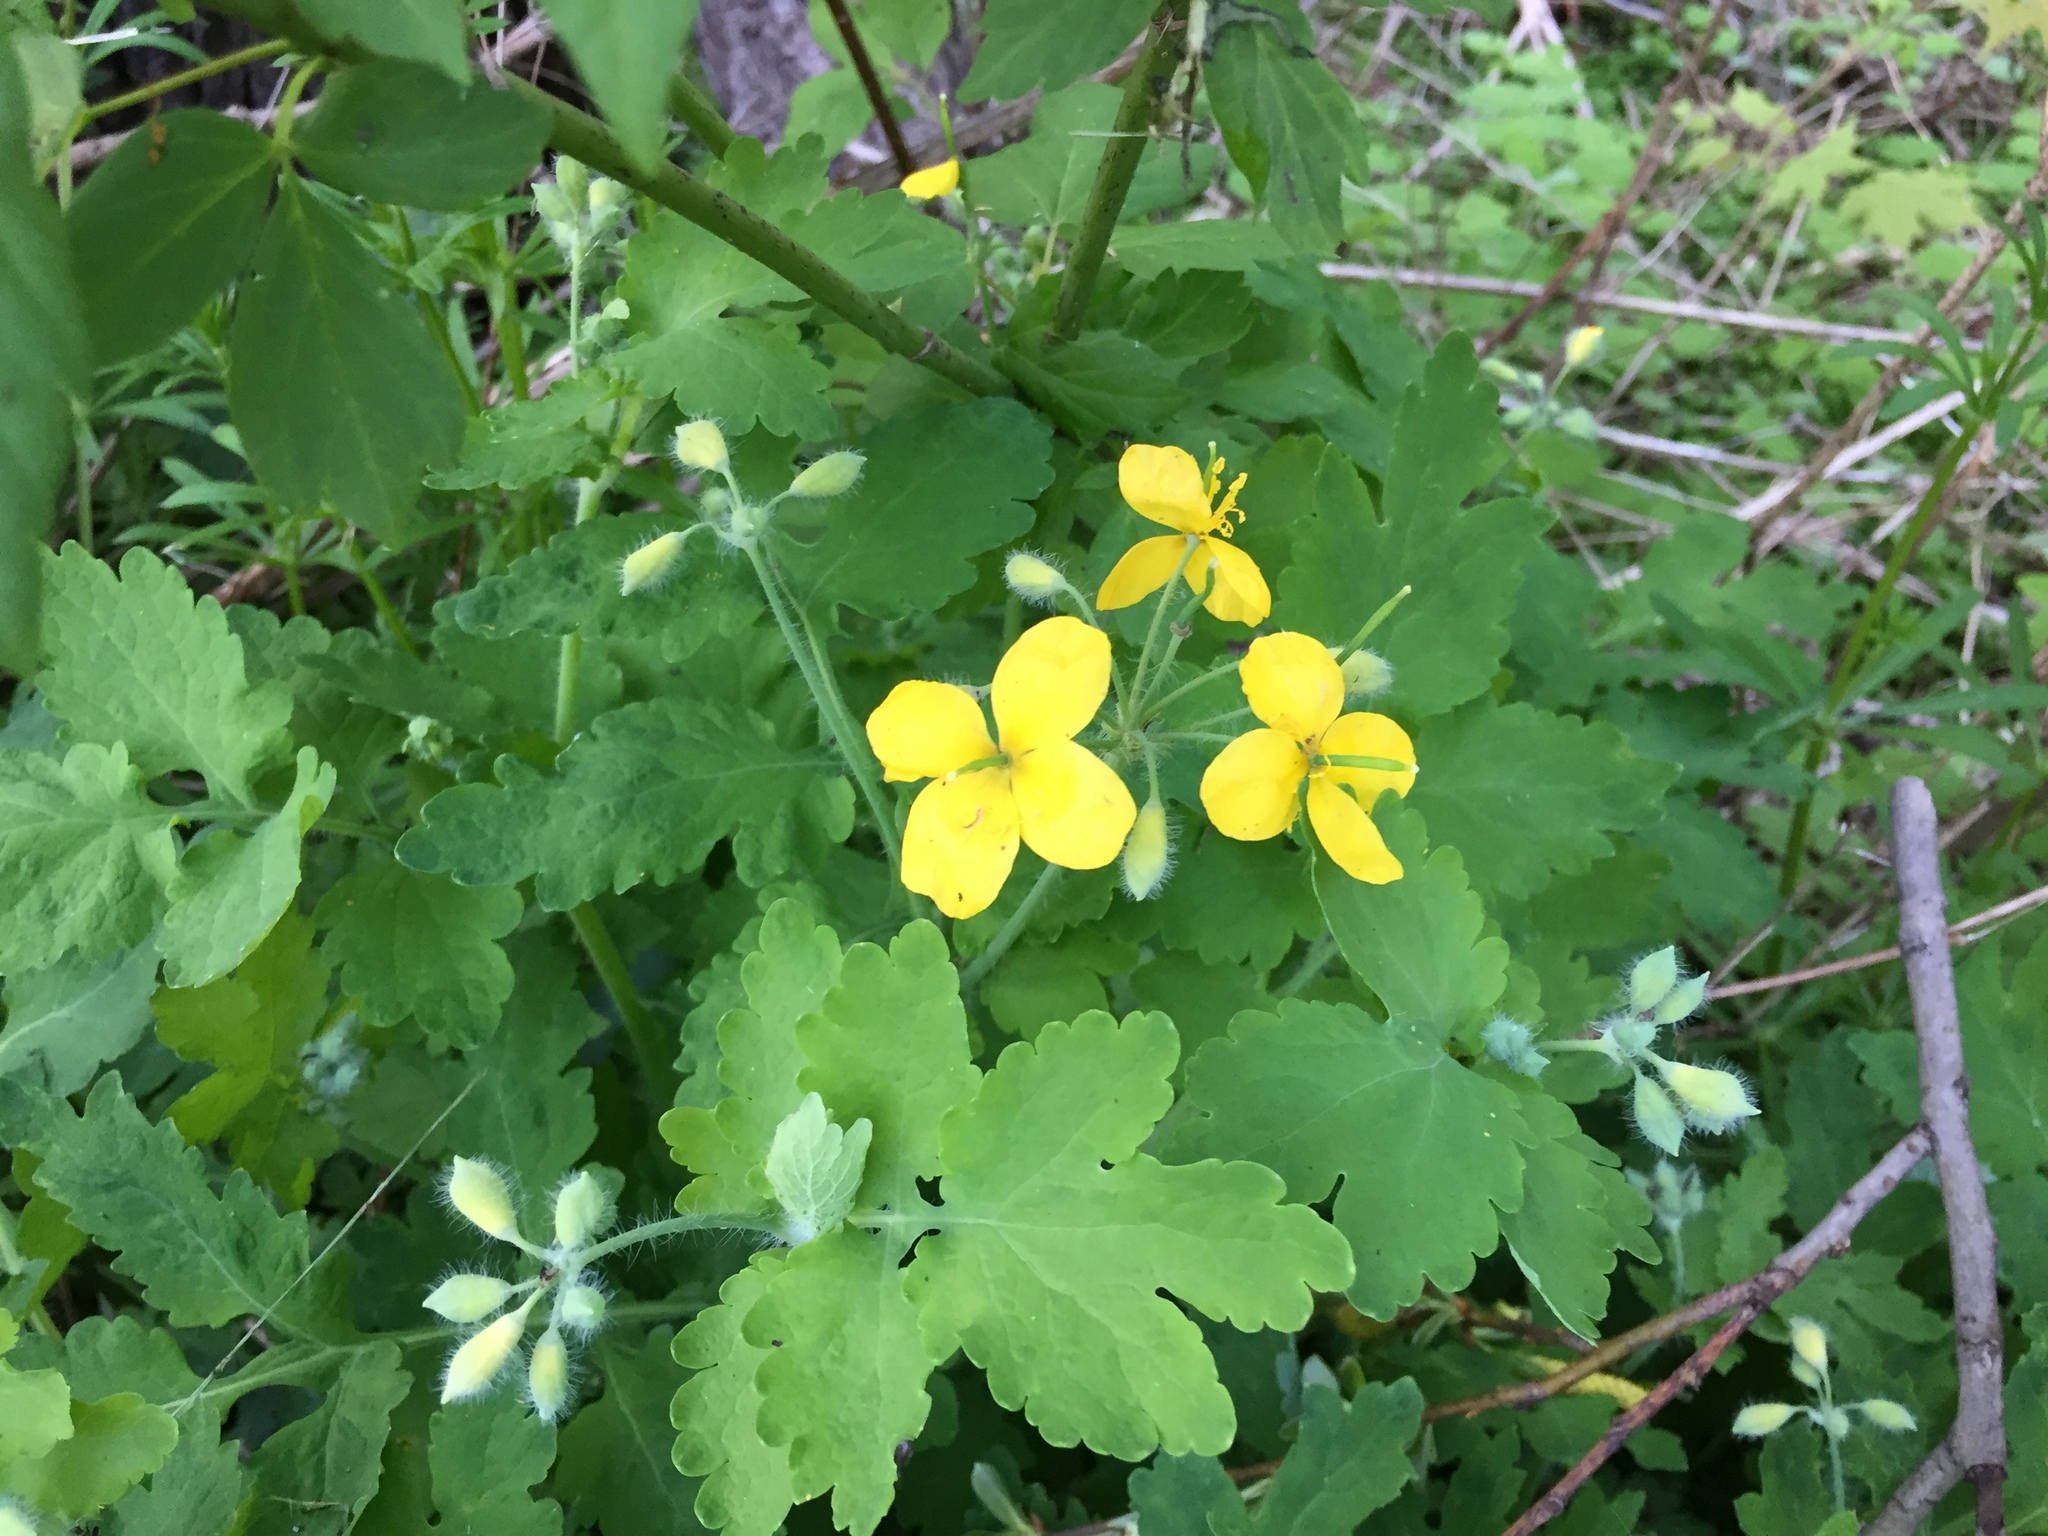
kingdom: Plantae
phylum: Tracheophyta
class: Magnoliopsida
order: Ranunculales
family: Papaveraceae
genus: Chelidonium
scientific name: Chelidonium majus
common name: Greater celandine
